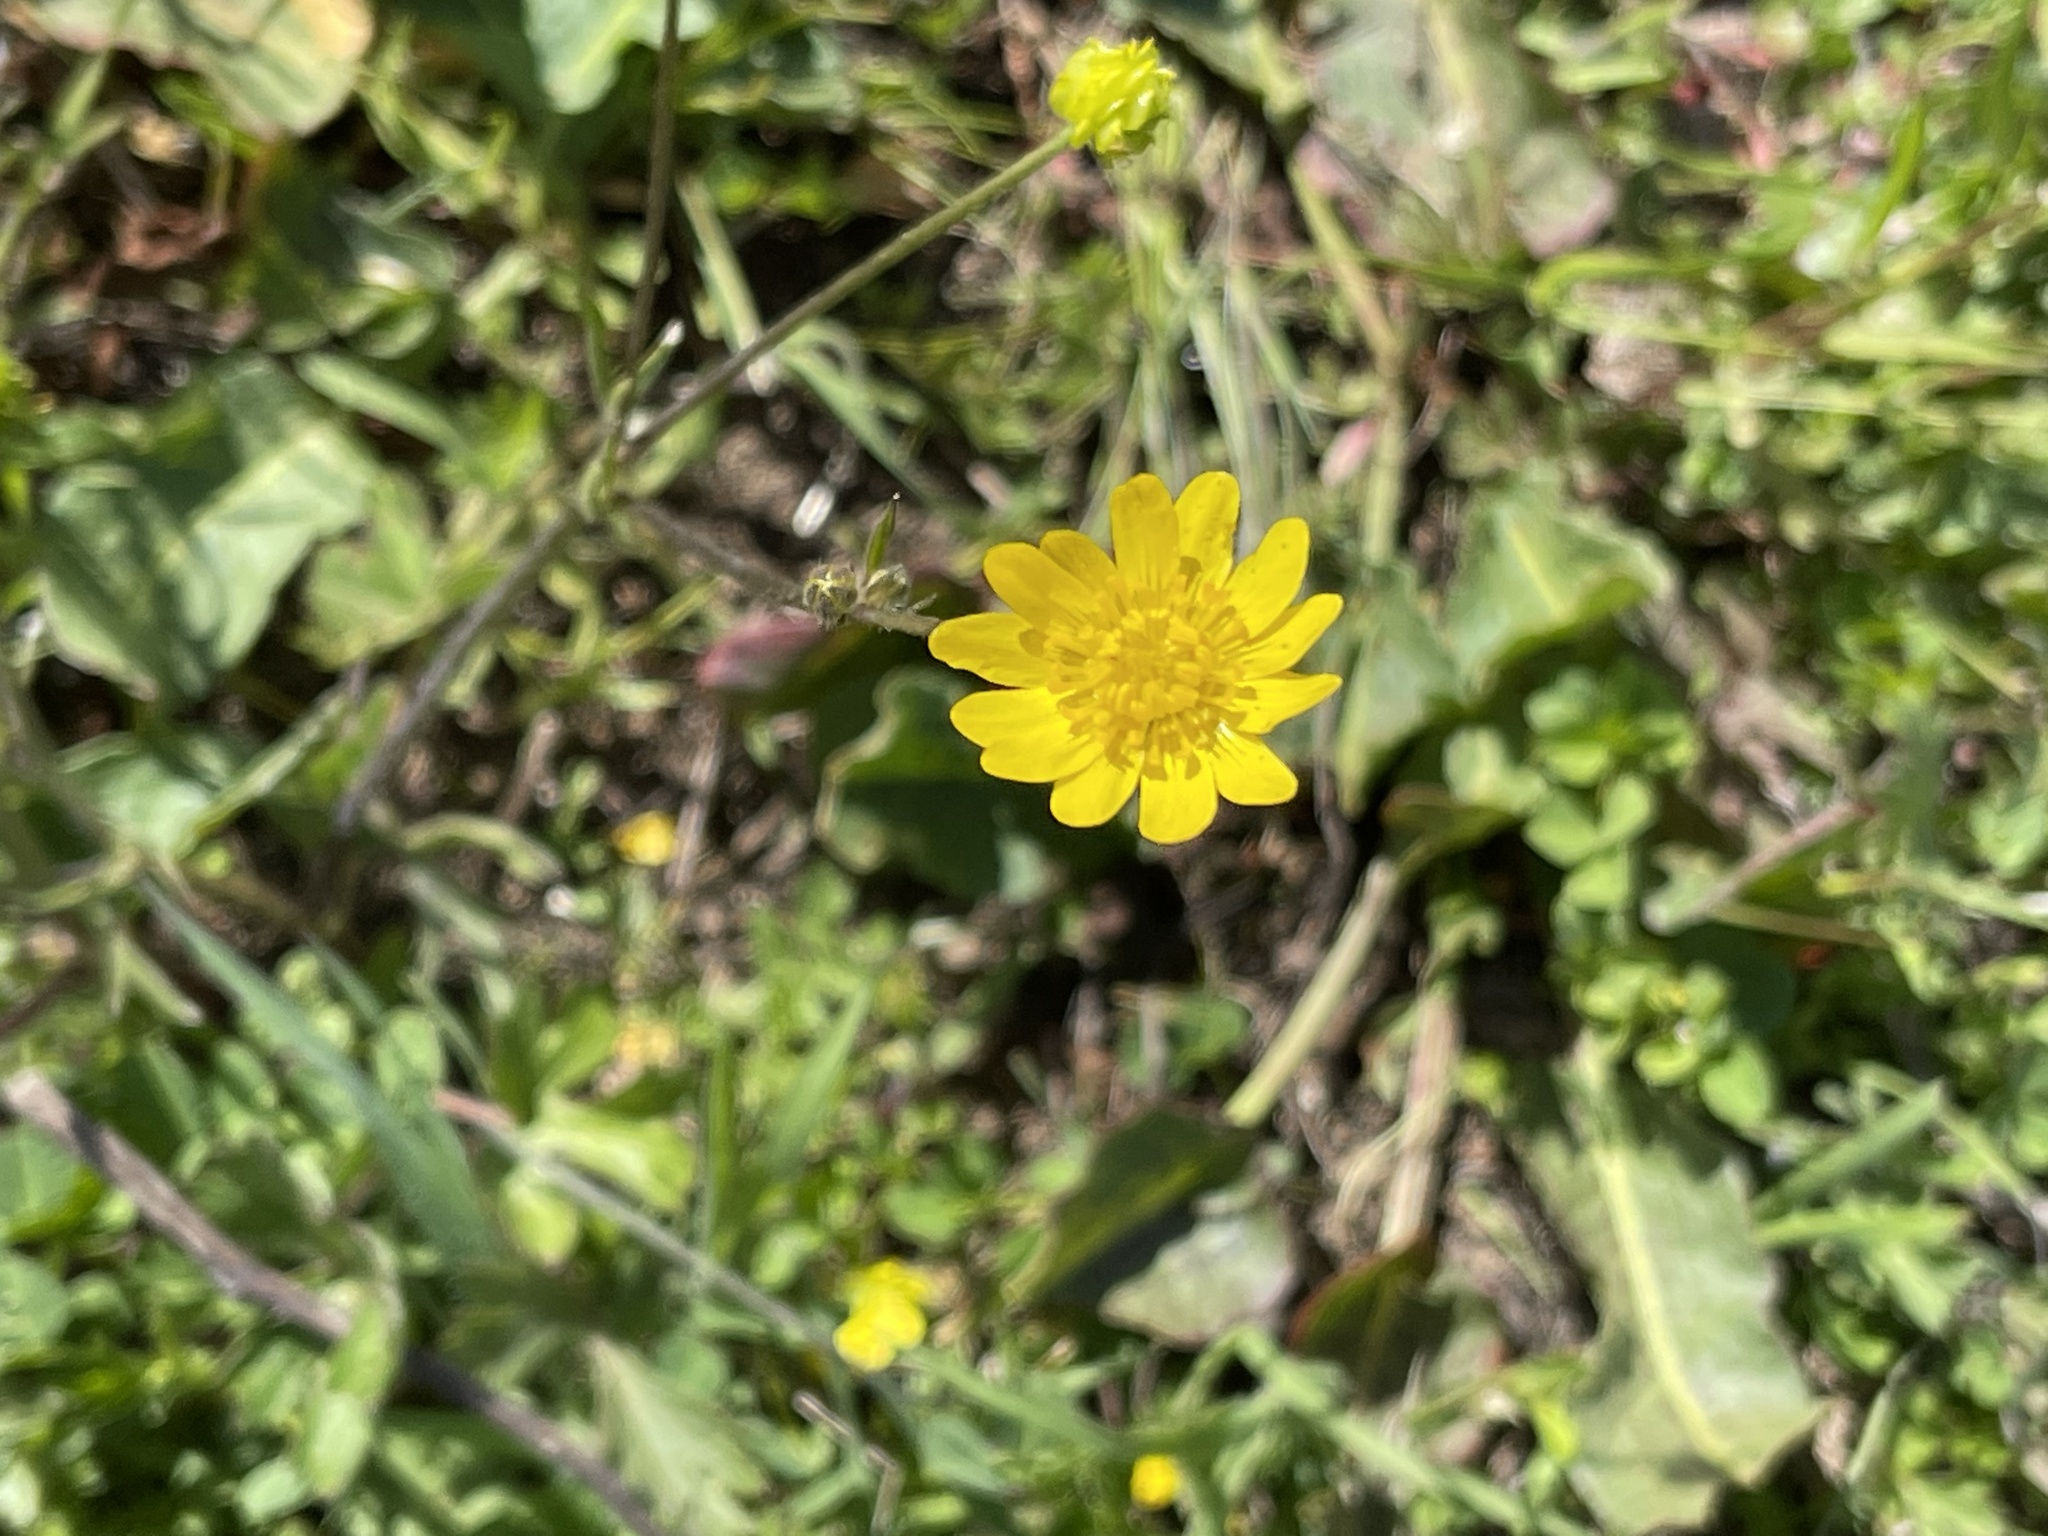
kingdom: Plantae
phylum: Tracheophyta
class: Magnoliopsida
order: Ranunculales
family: Ranunculaceae
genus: Ranunculus
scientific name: Ranunculus californicus
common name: California buttercup
